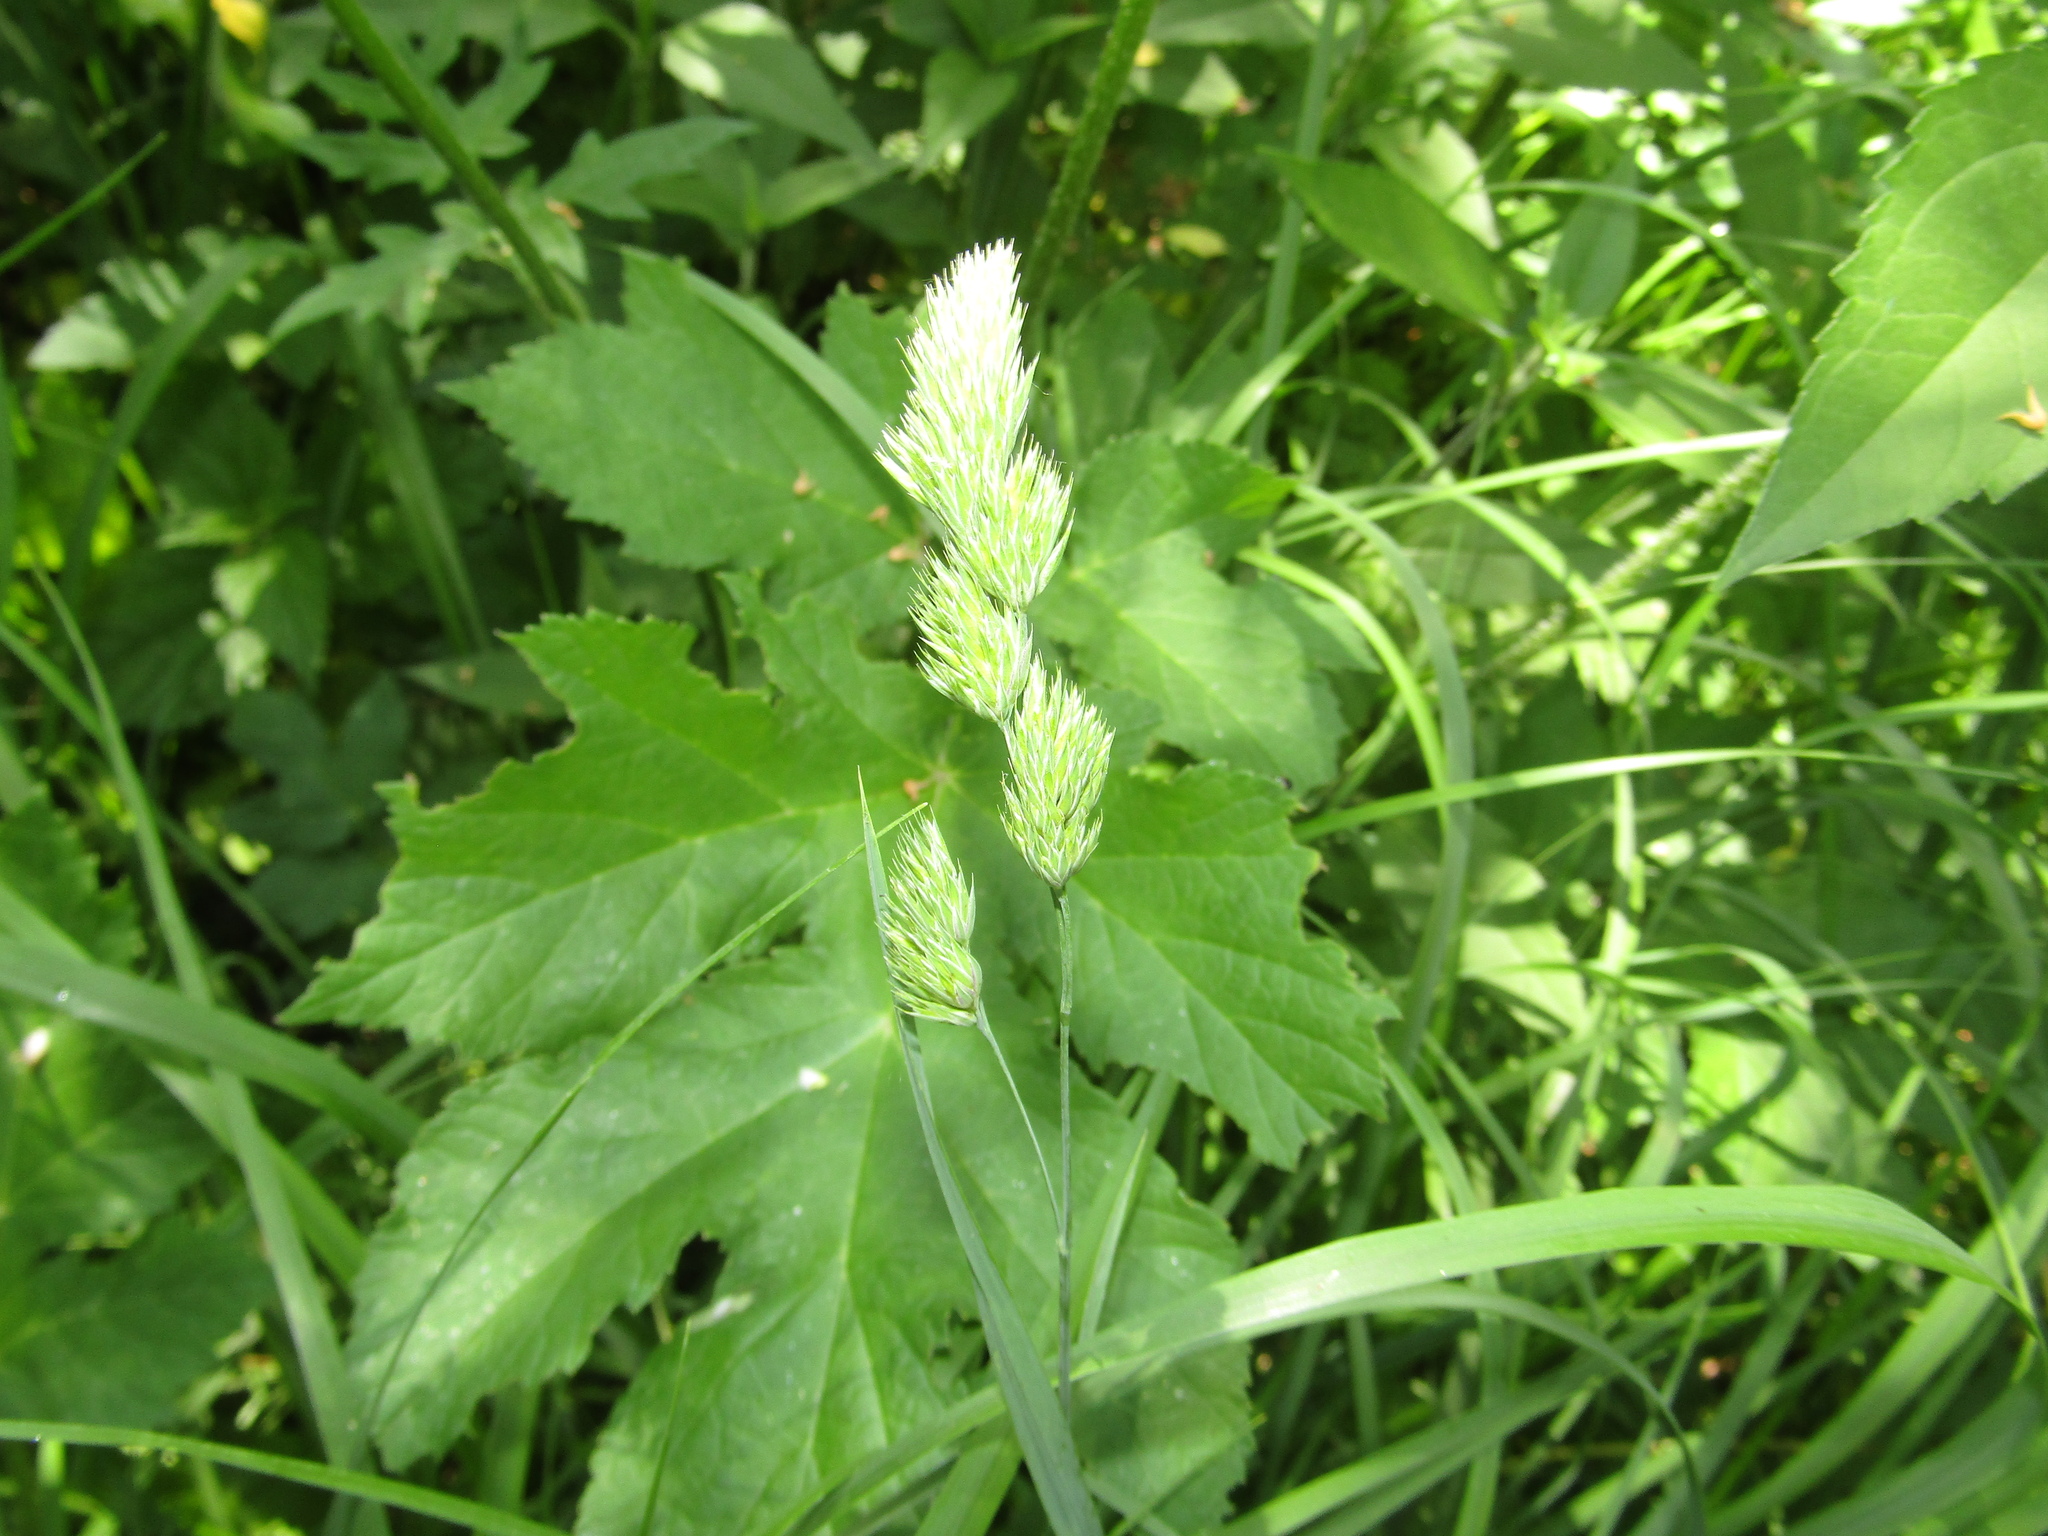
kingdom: Plantae
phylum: Tracheophyta
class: Liliopsida
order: Poales
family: Poaceae
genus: Dactylis
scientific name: Dactylis glomerata
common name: Orchardgrass
